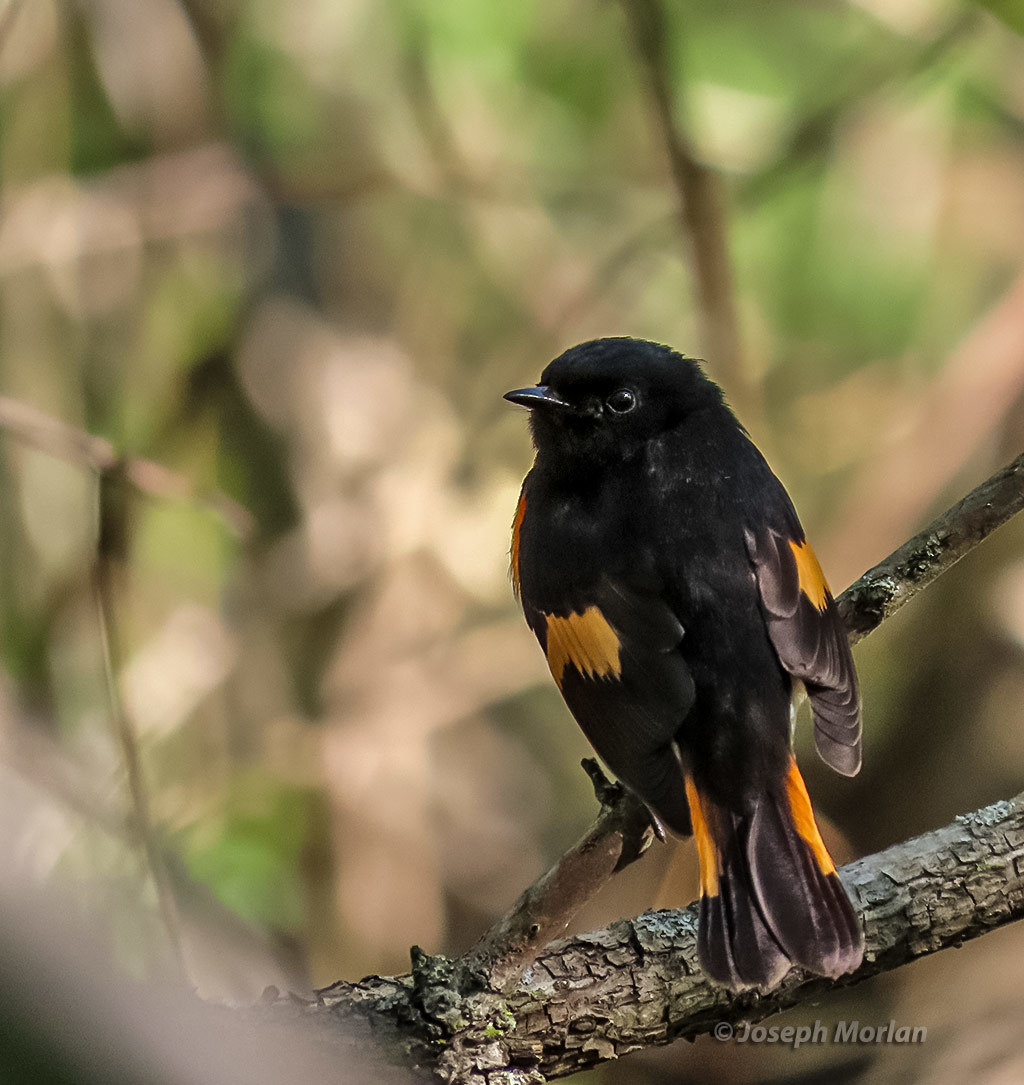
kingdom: Animalia
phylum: Chordata
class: Aves
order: Passeriformes
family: Parulidae
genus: Setophaga
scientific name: Setophaga ruticilla
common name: American redstart
